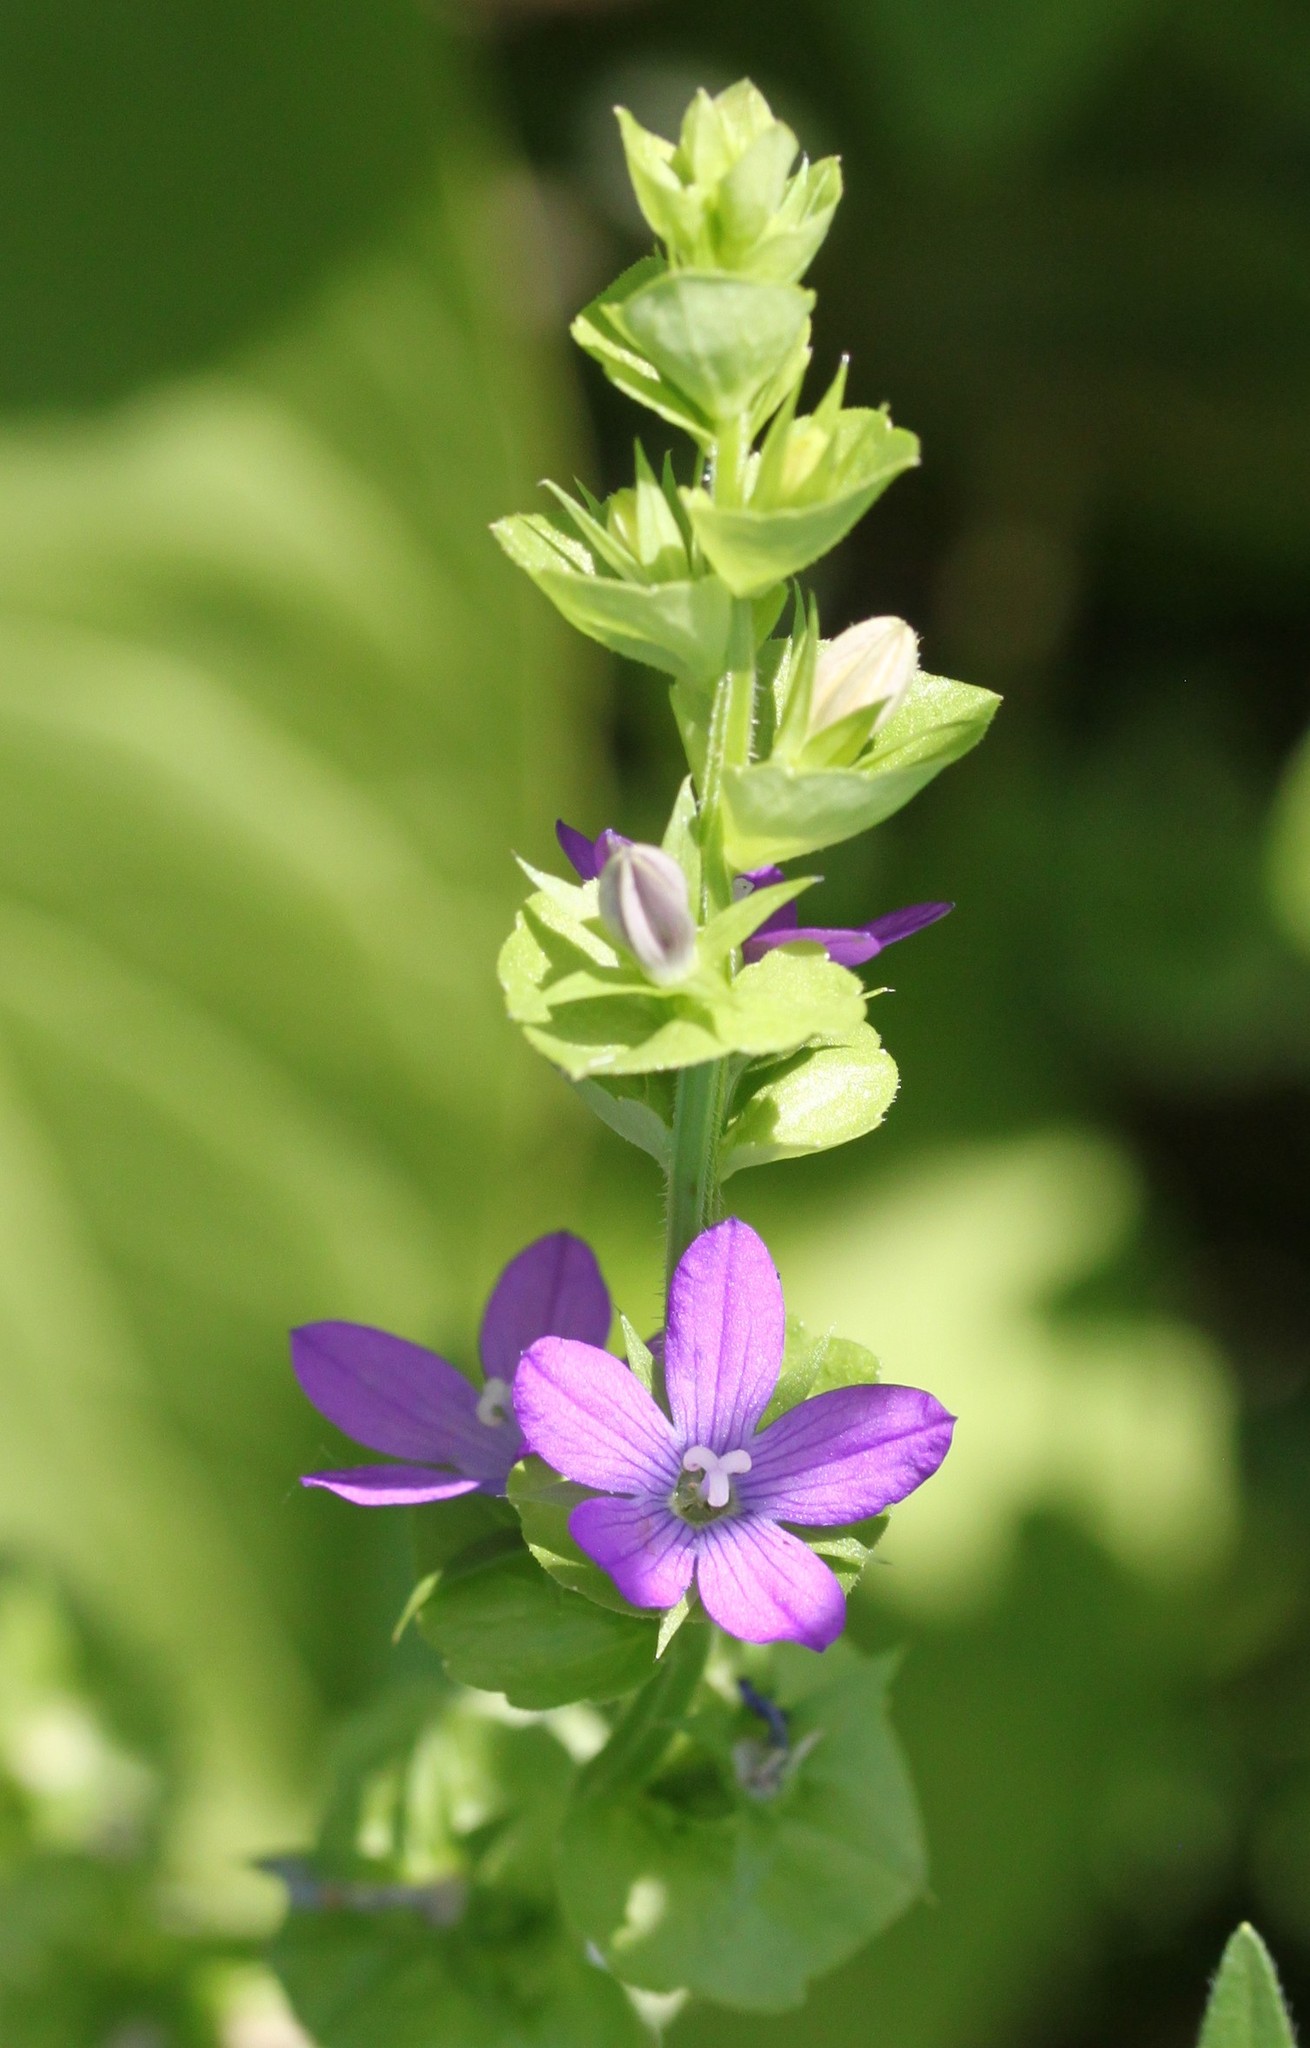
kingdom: Plantae
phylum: Tracheophyta
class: Magnoliopsida
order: Asterales
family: Campanulaceae
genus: Triodanis
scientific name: Triodanis perfoliata
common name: Clasping venus' looking-glass
